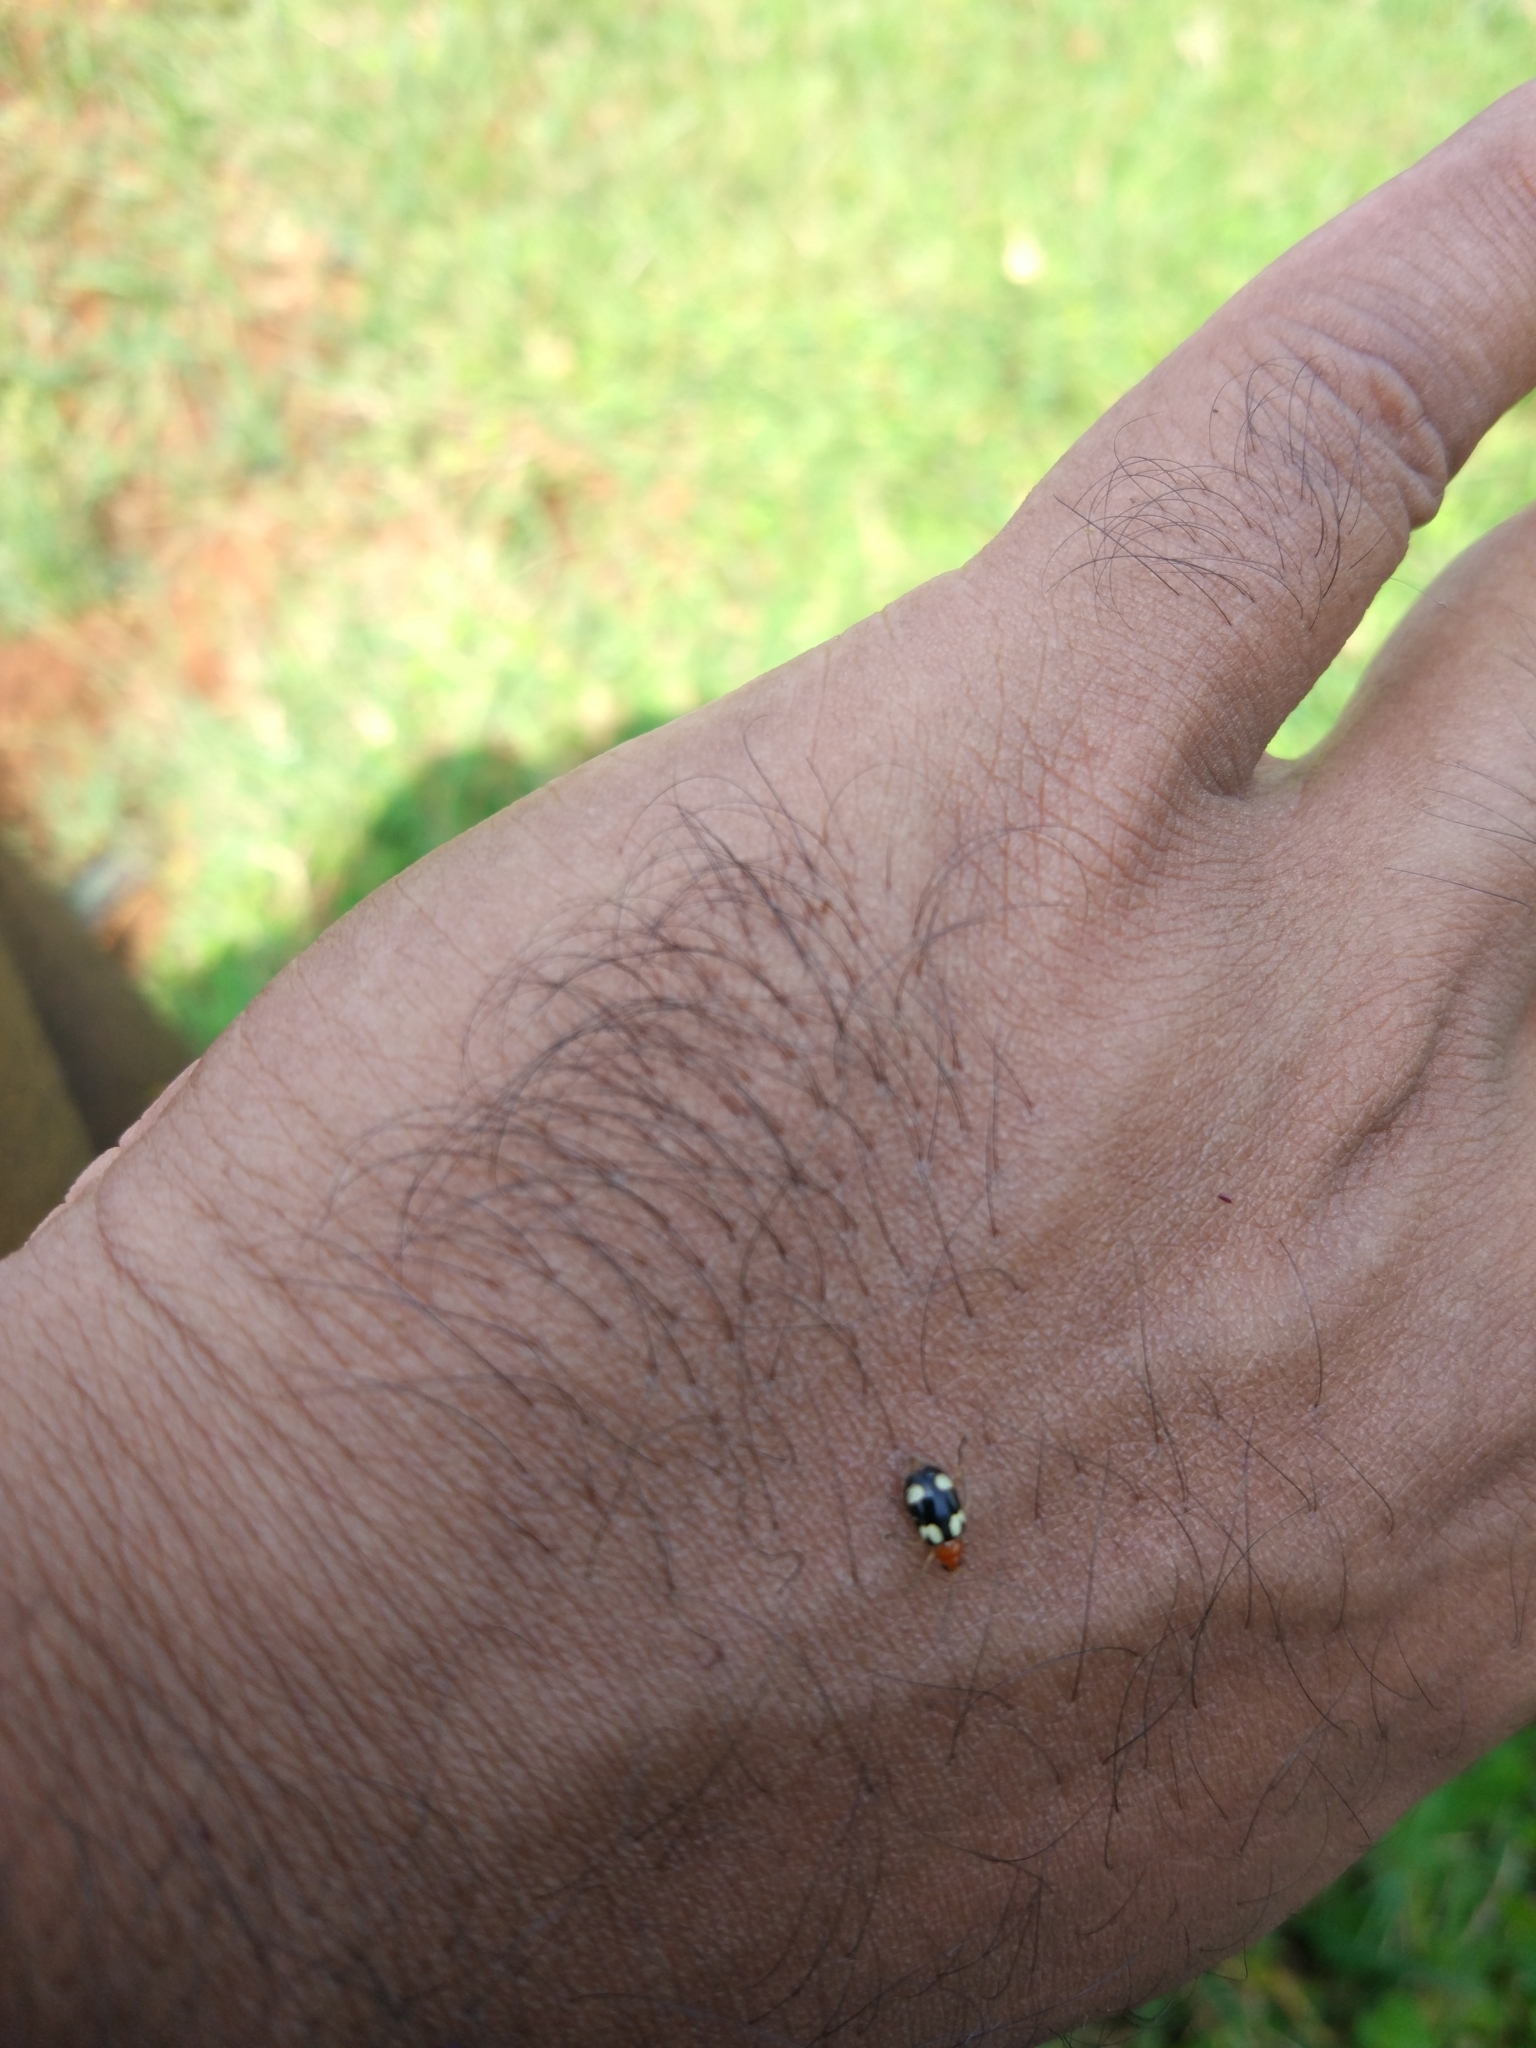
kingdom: Animalia
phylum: Arthropoda
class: Insecta
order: Coleoptera
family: Chrysomelidae
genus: Monolepta
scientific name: Monolepta signata
